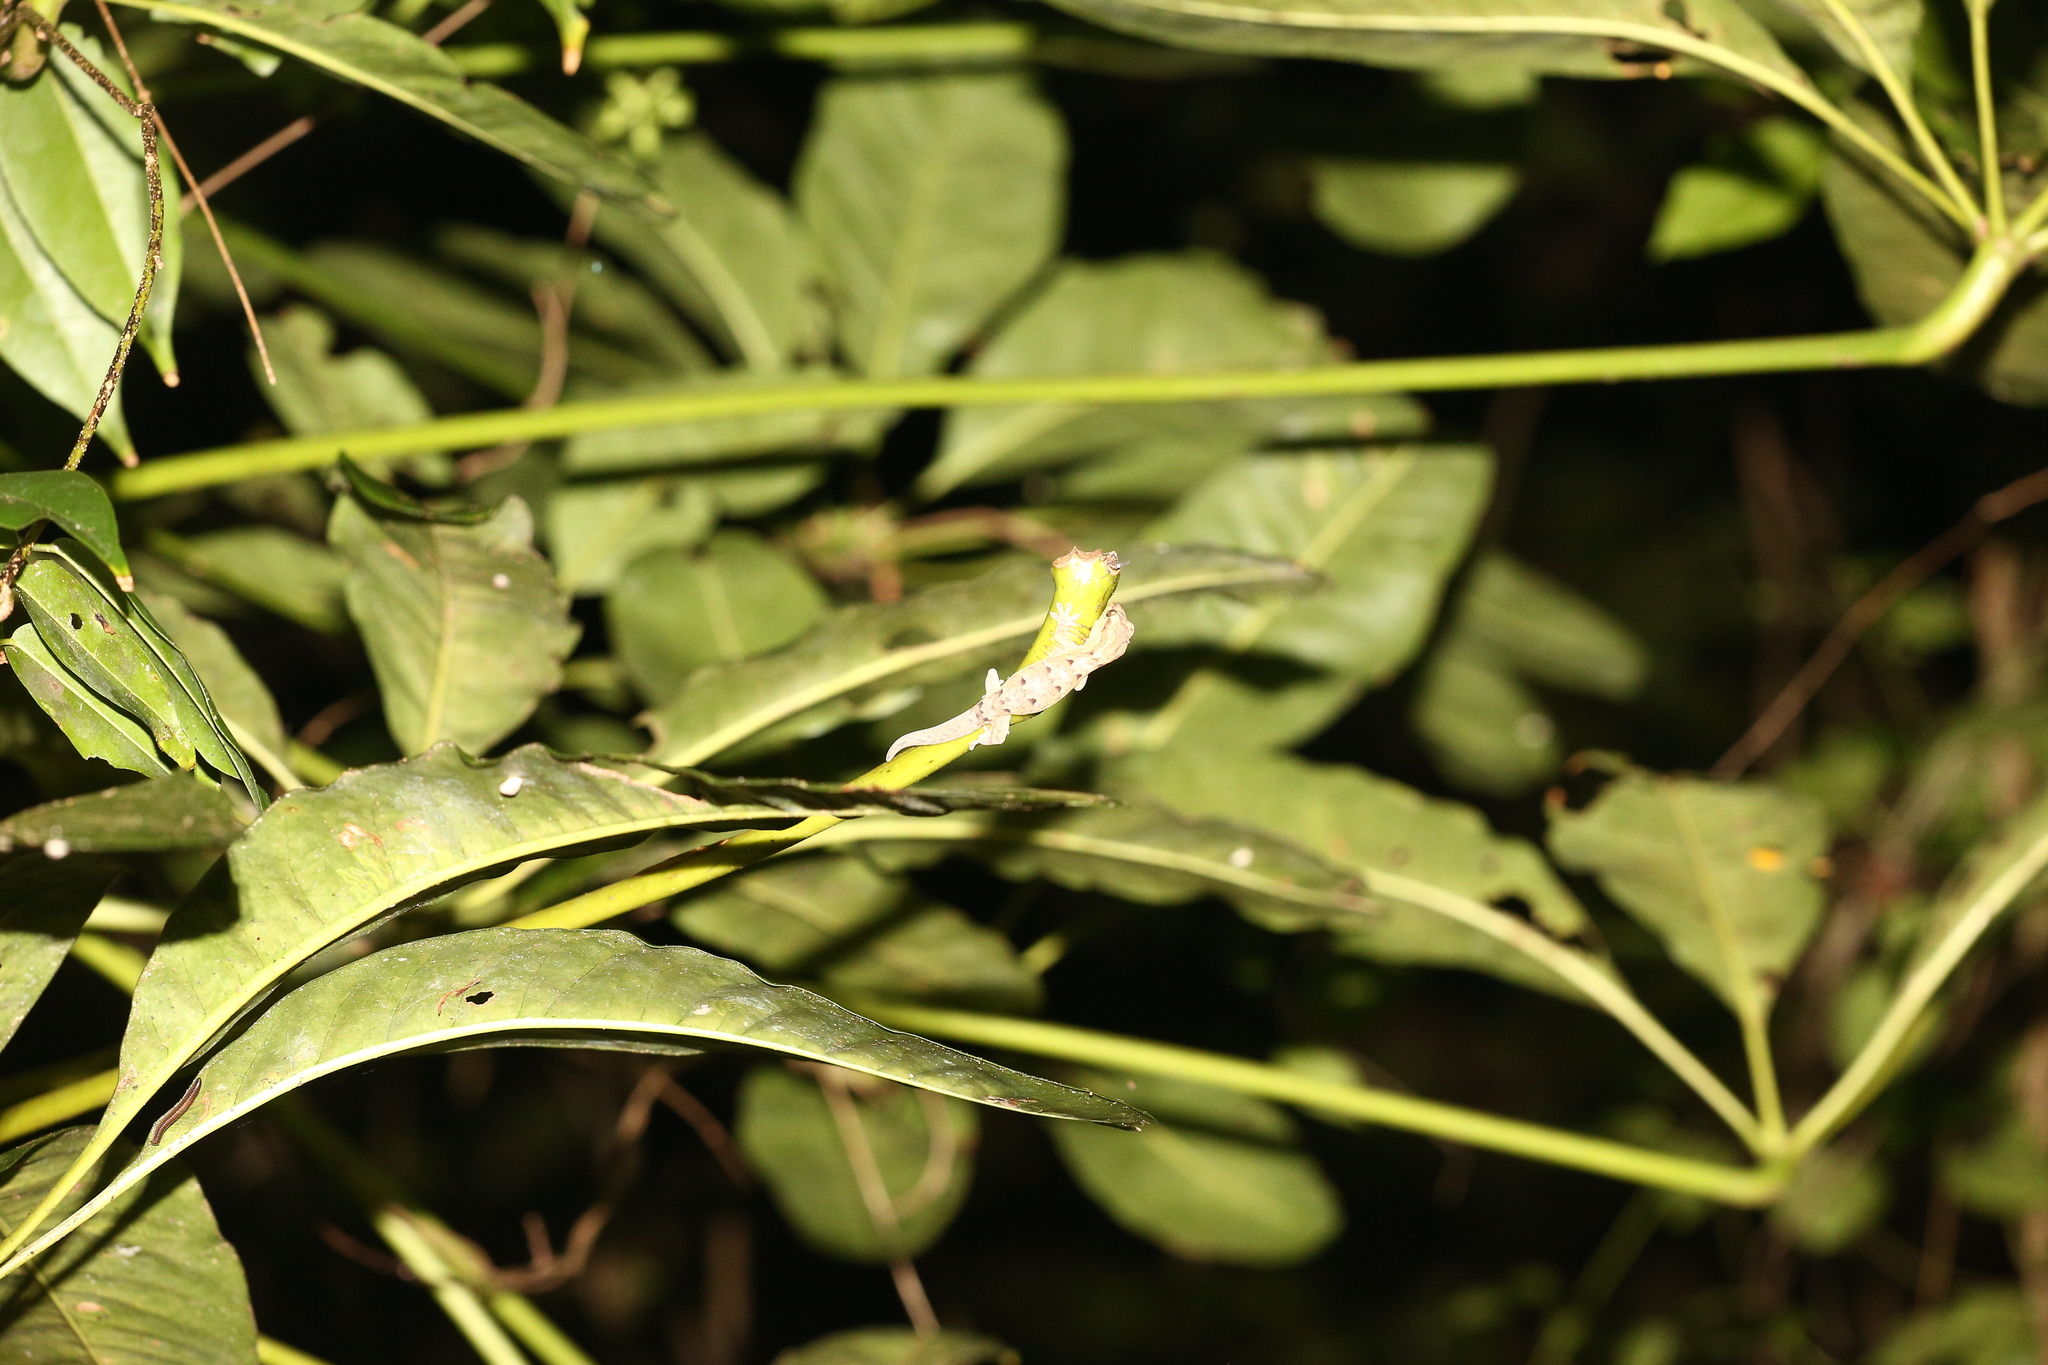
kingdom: Animalia
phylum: Chordata
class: Squamata
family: Diplodactylidae
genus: Bavayia
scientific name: Bavayia
